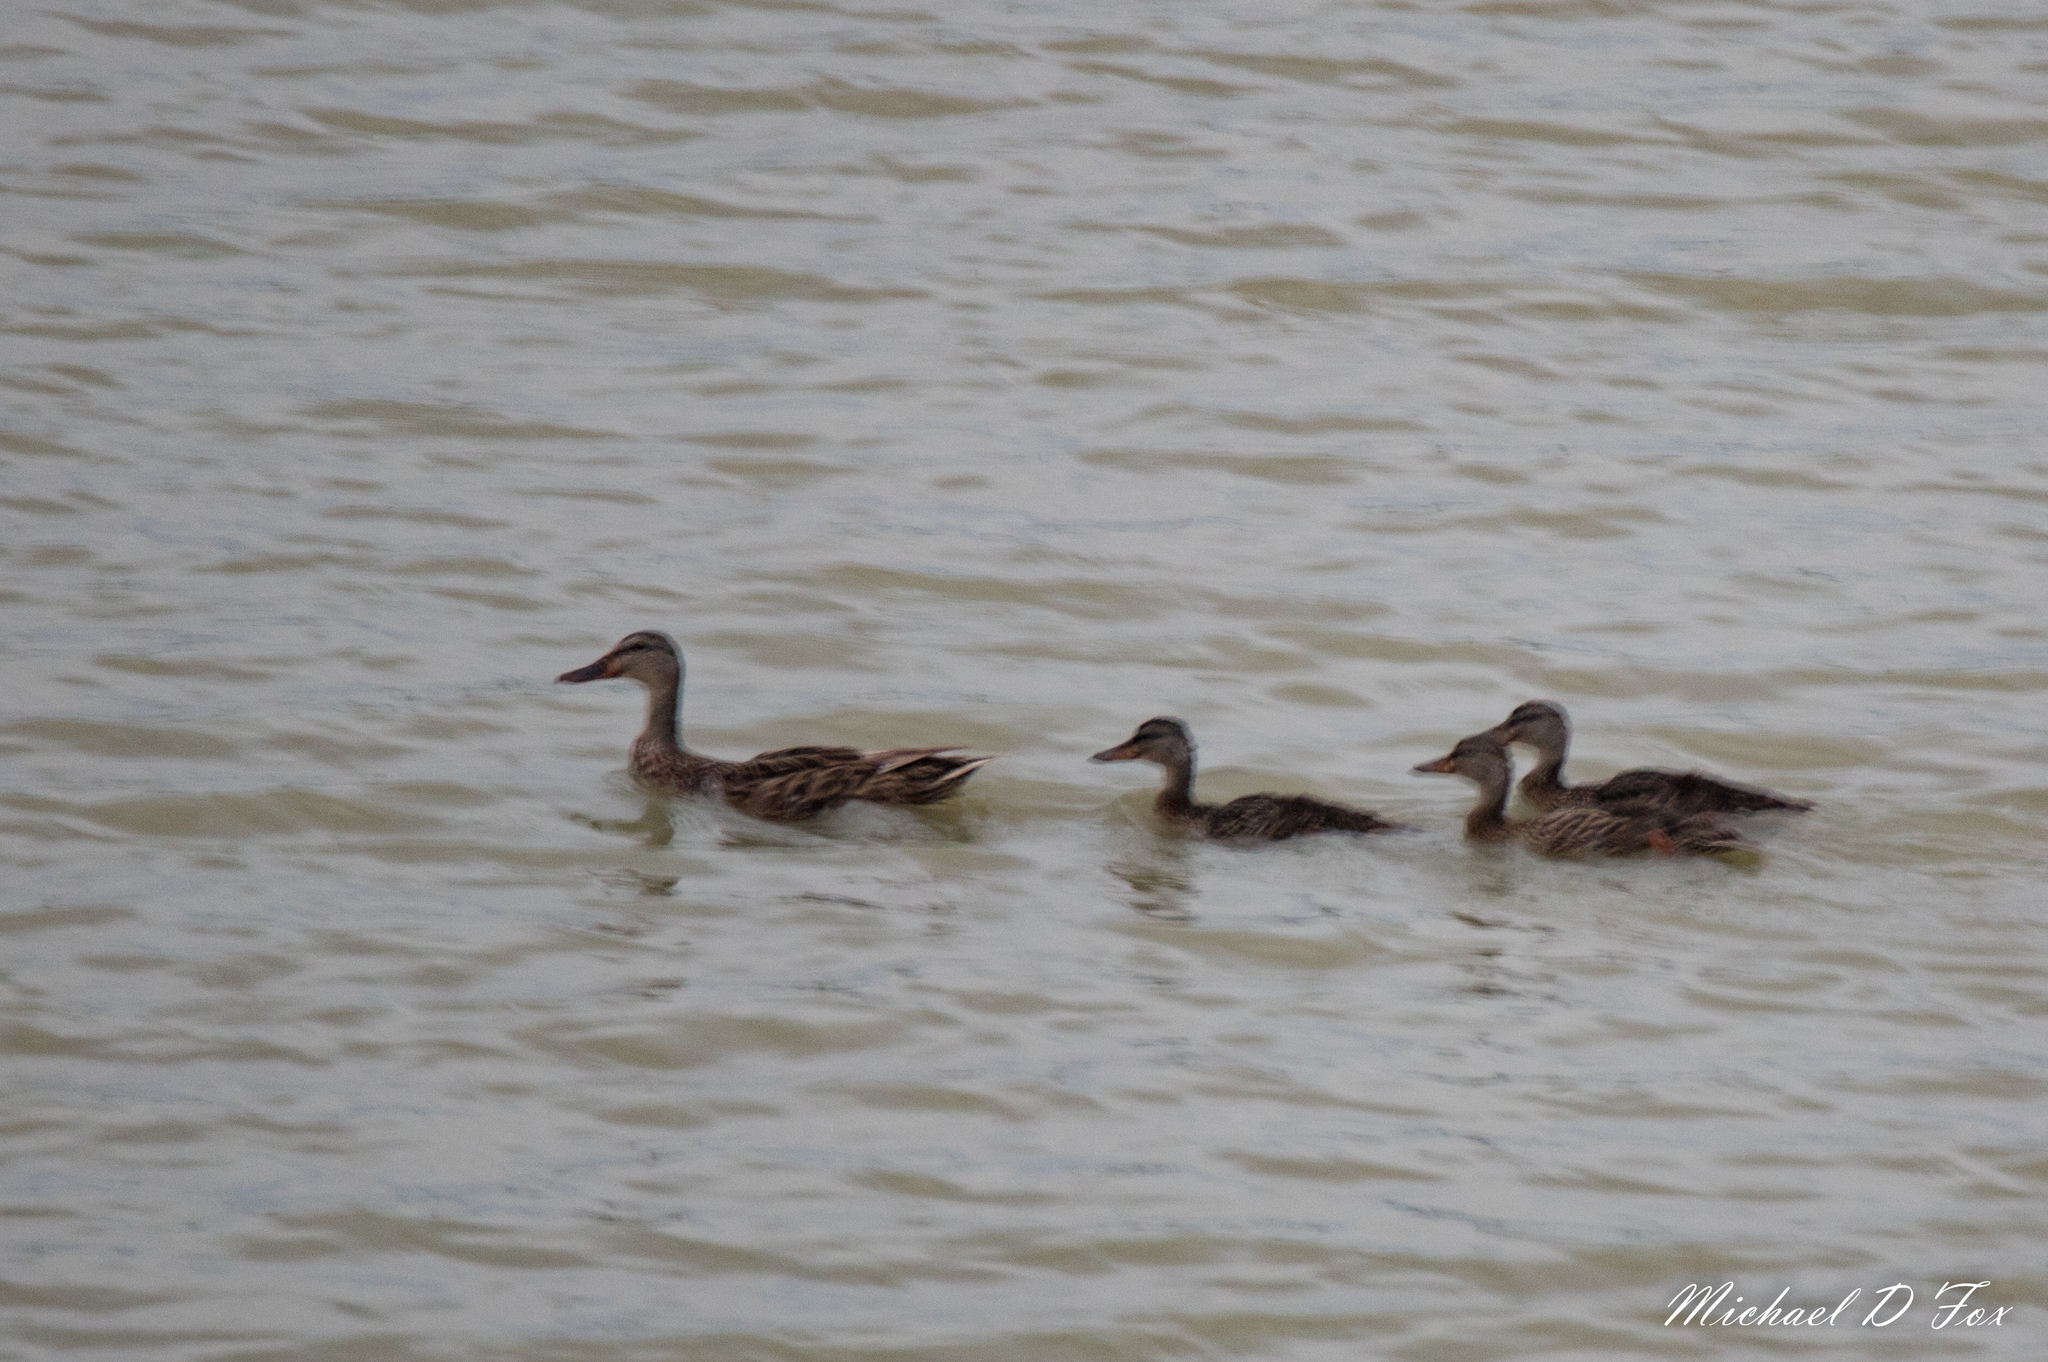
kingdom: Animalia
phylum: Chordata
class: Aves
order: Anseriformes
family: Anatidae
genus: Anas
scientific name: Anas platyrhynchos
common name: Mallard
